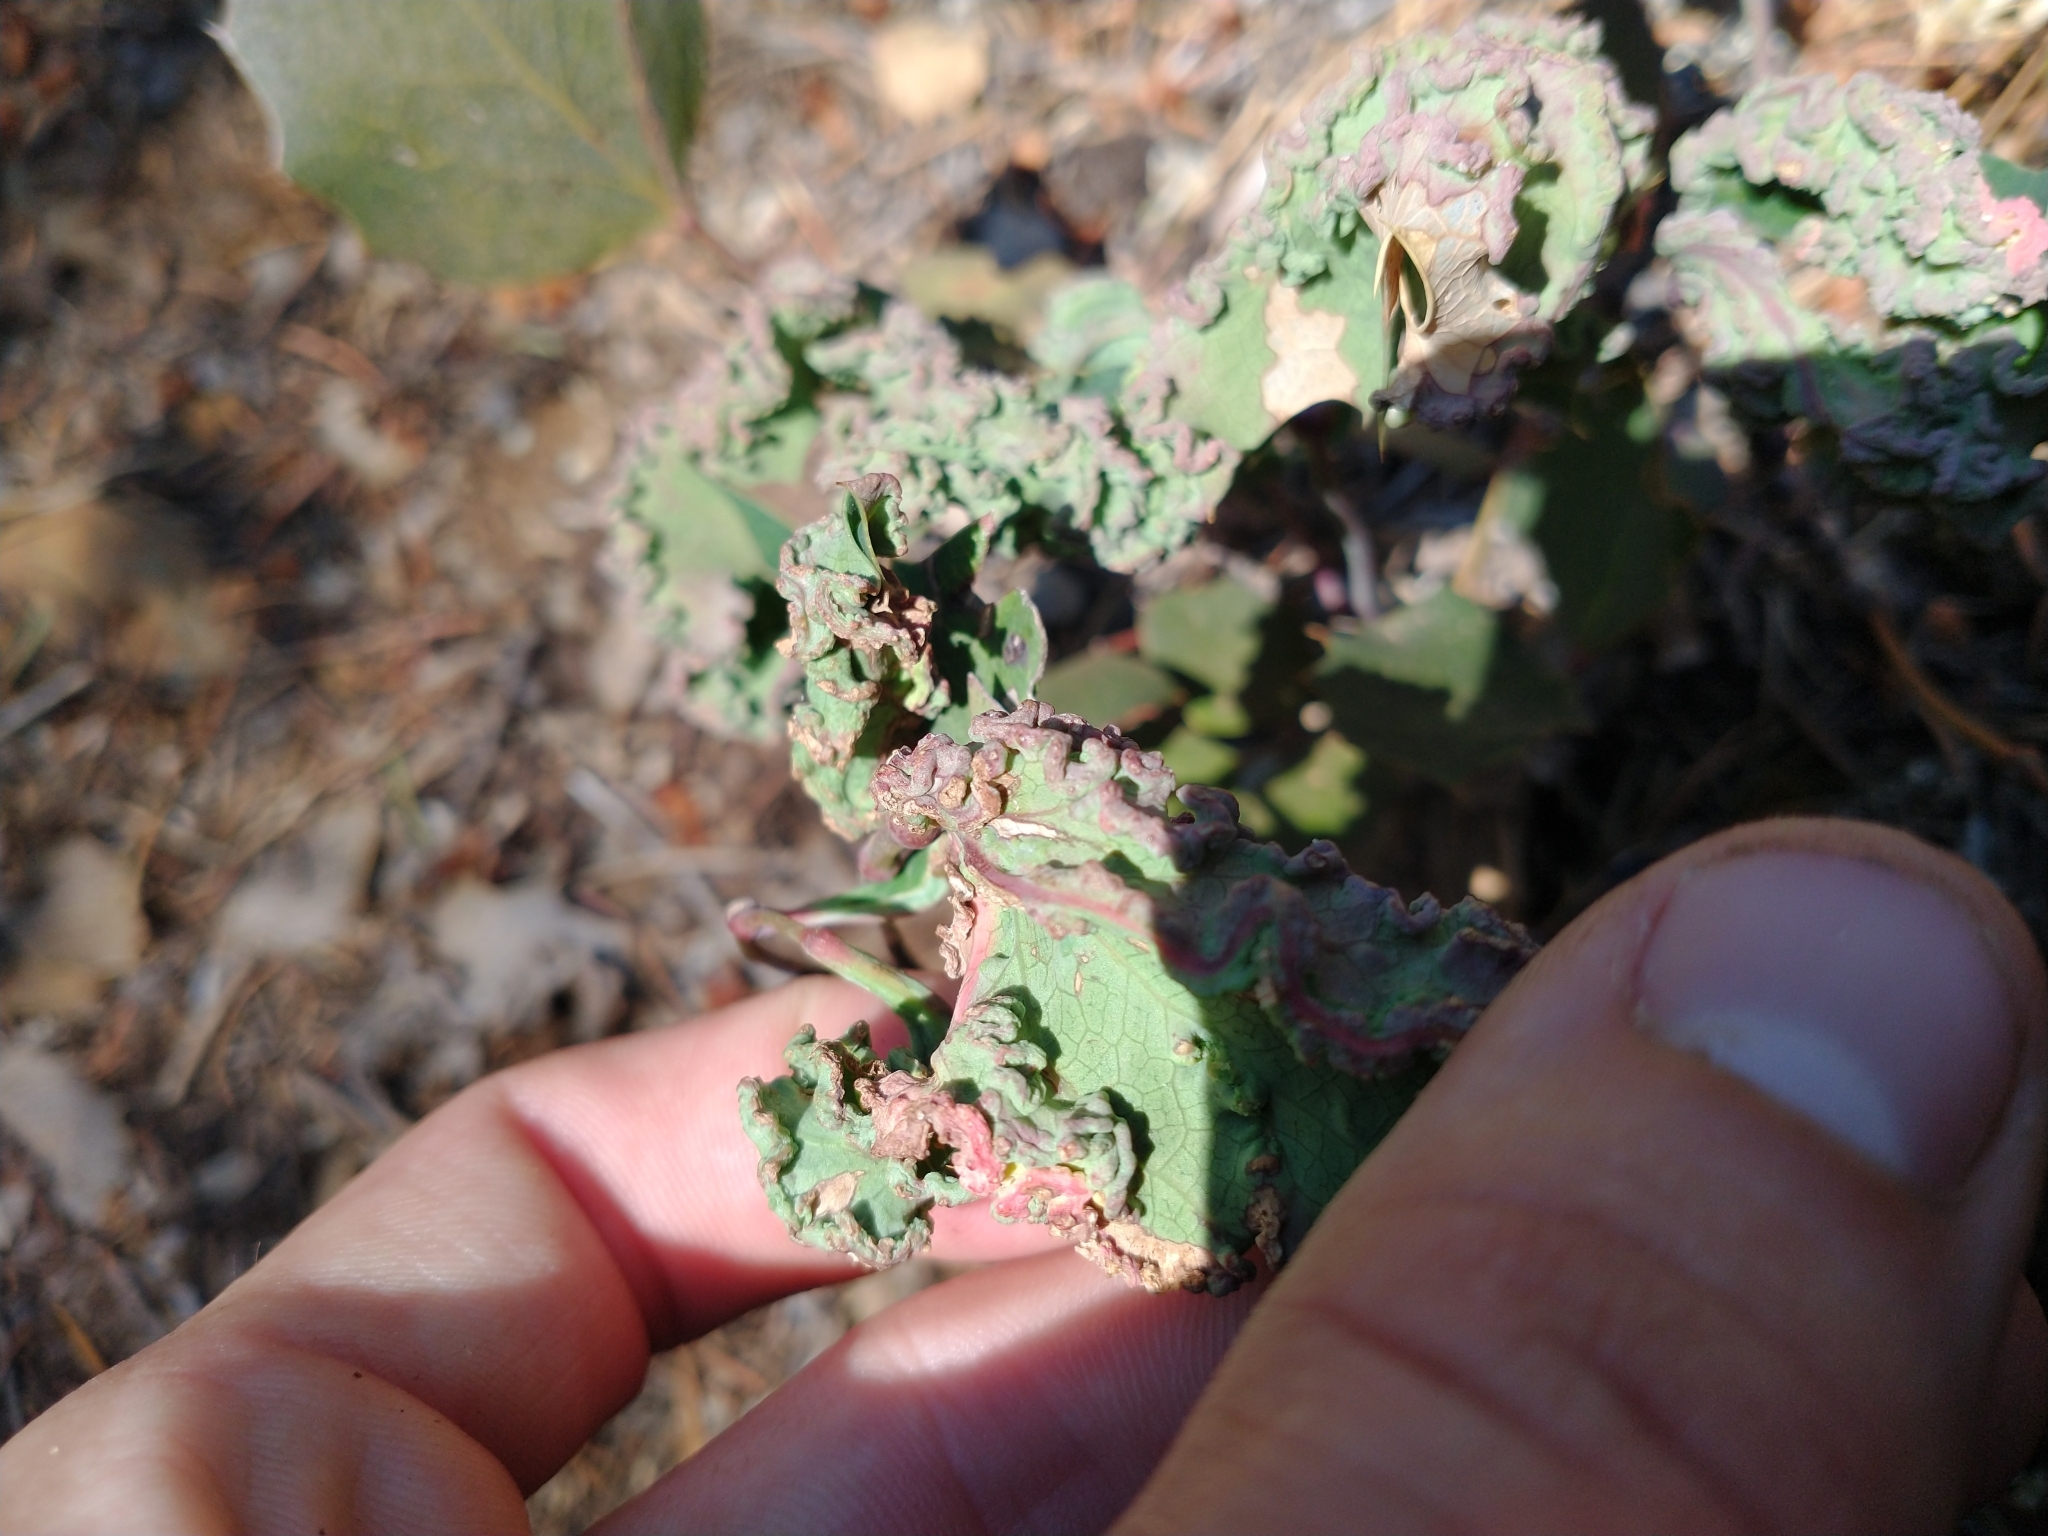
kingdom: Plantae
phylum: Tracheophyta
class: Magnoliopsida
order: Ranunculales
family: Berberidaceae
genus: Mahonia
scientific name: Mahonia repens
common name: Creeping oregon-grape
